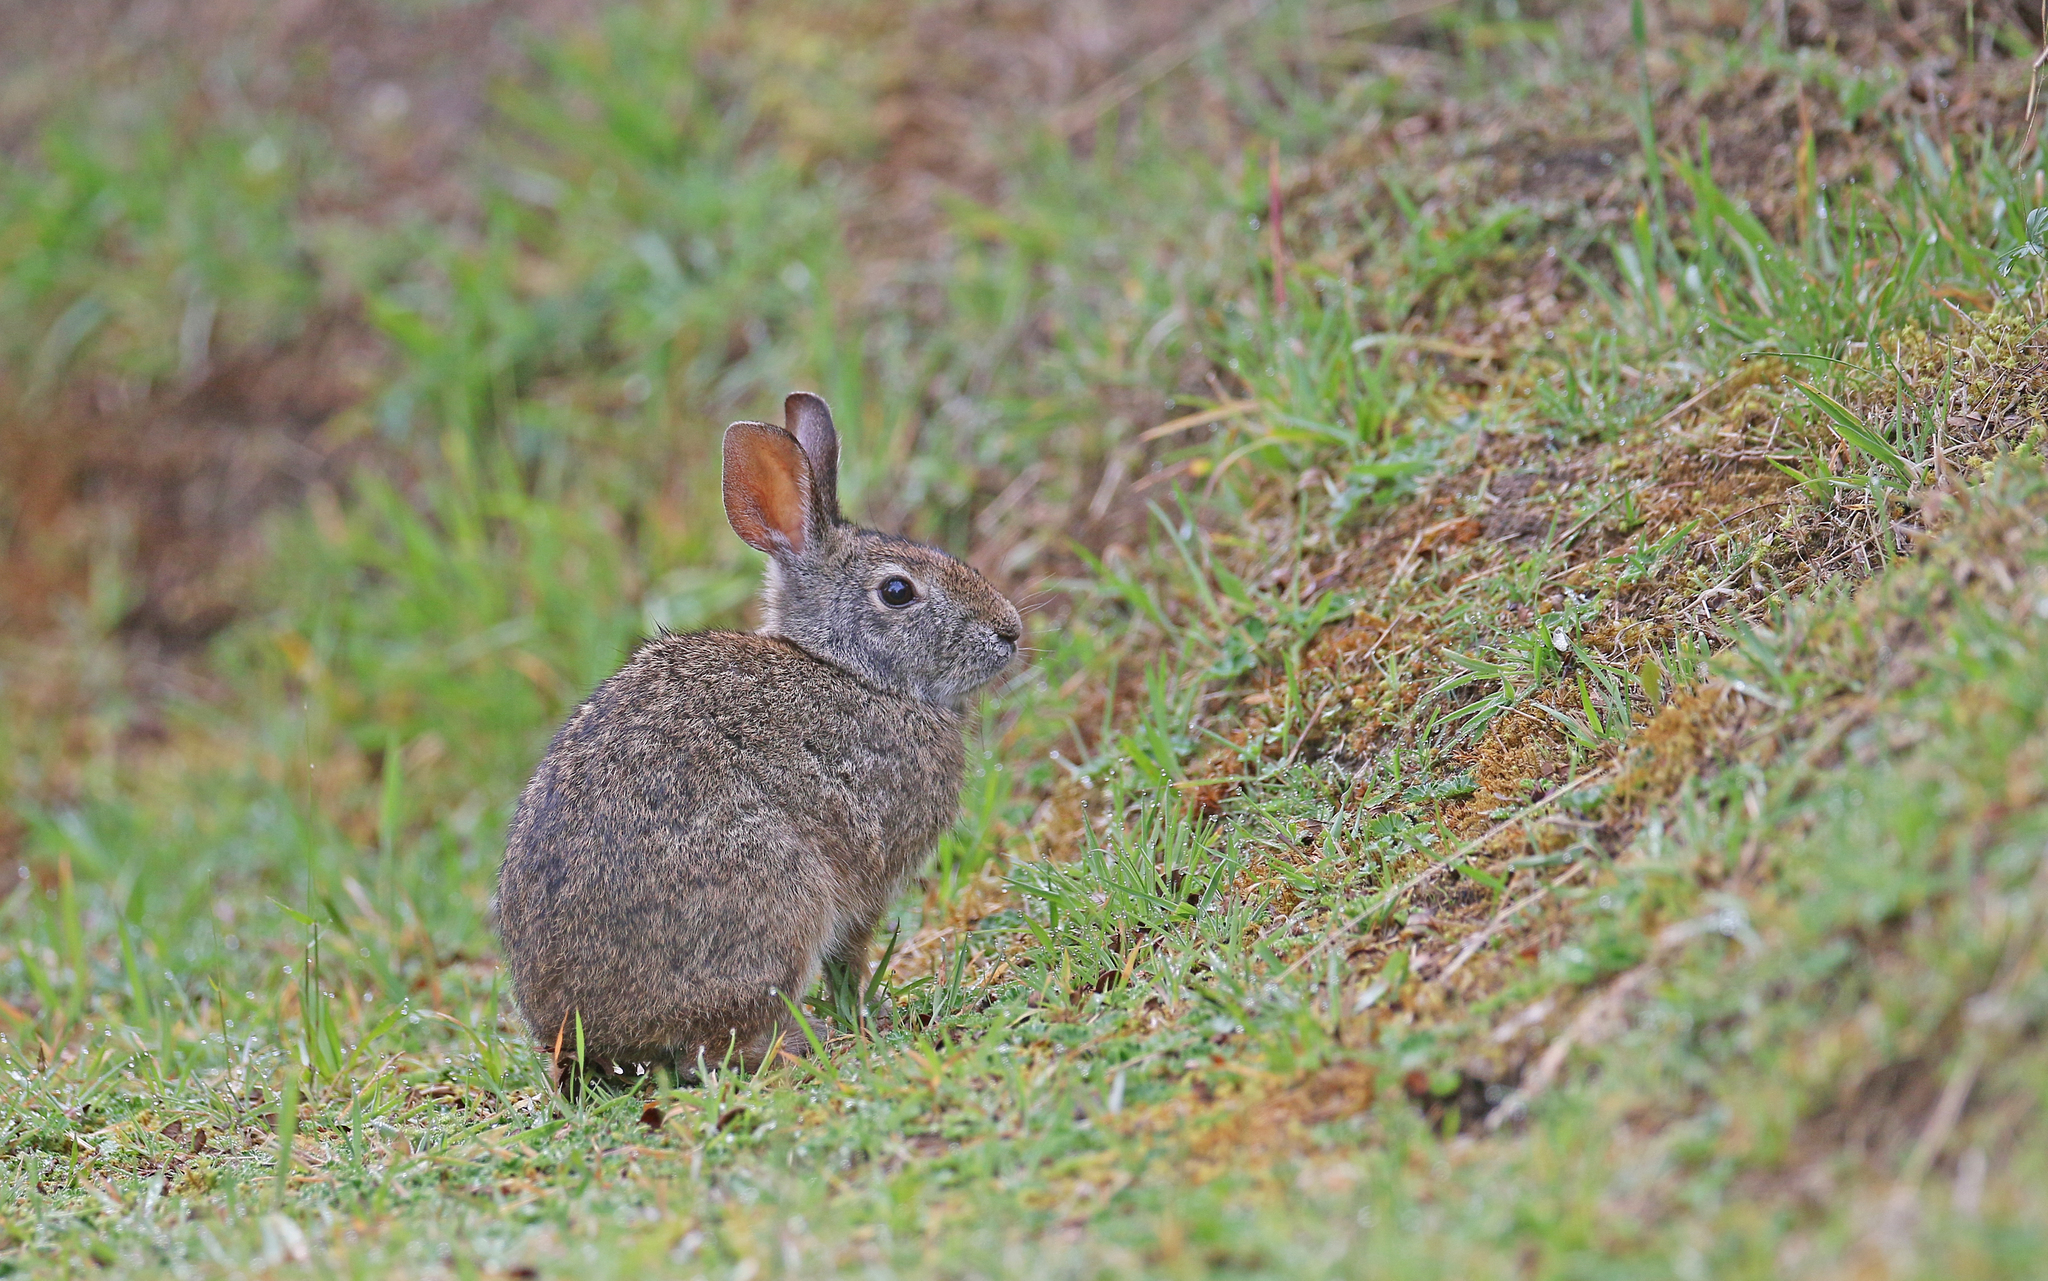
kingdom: Animalia
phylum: Chordata
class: Mammalia
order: Lagomorpha
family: Leporidae
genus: Sylvilagus
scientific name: Sylvilagus andinus
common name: Andean cottontail
